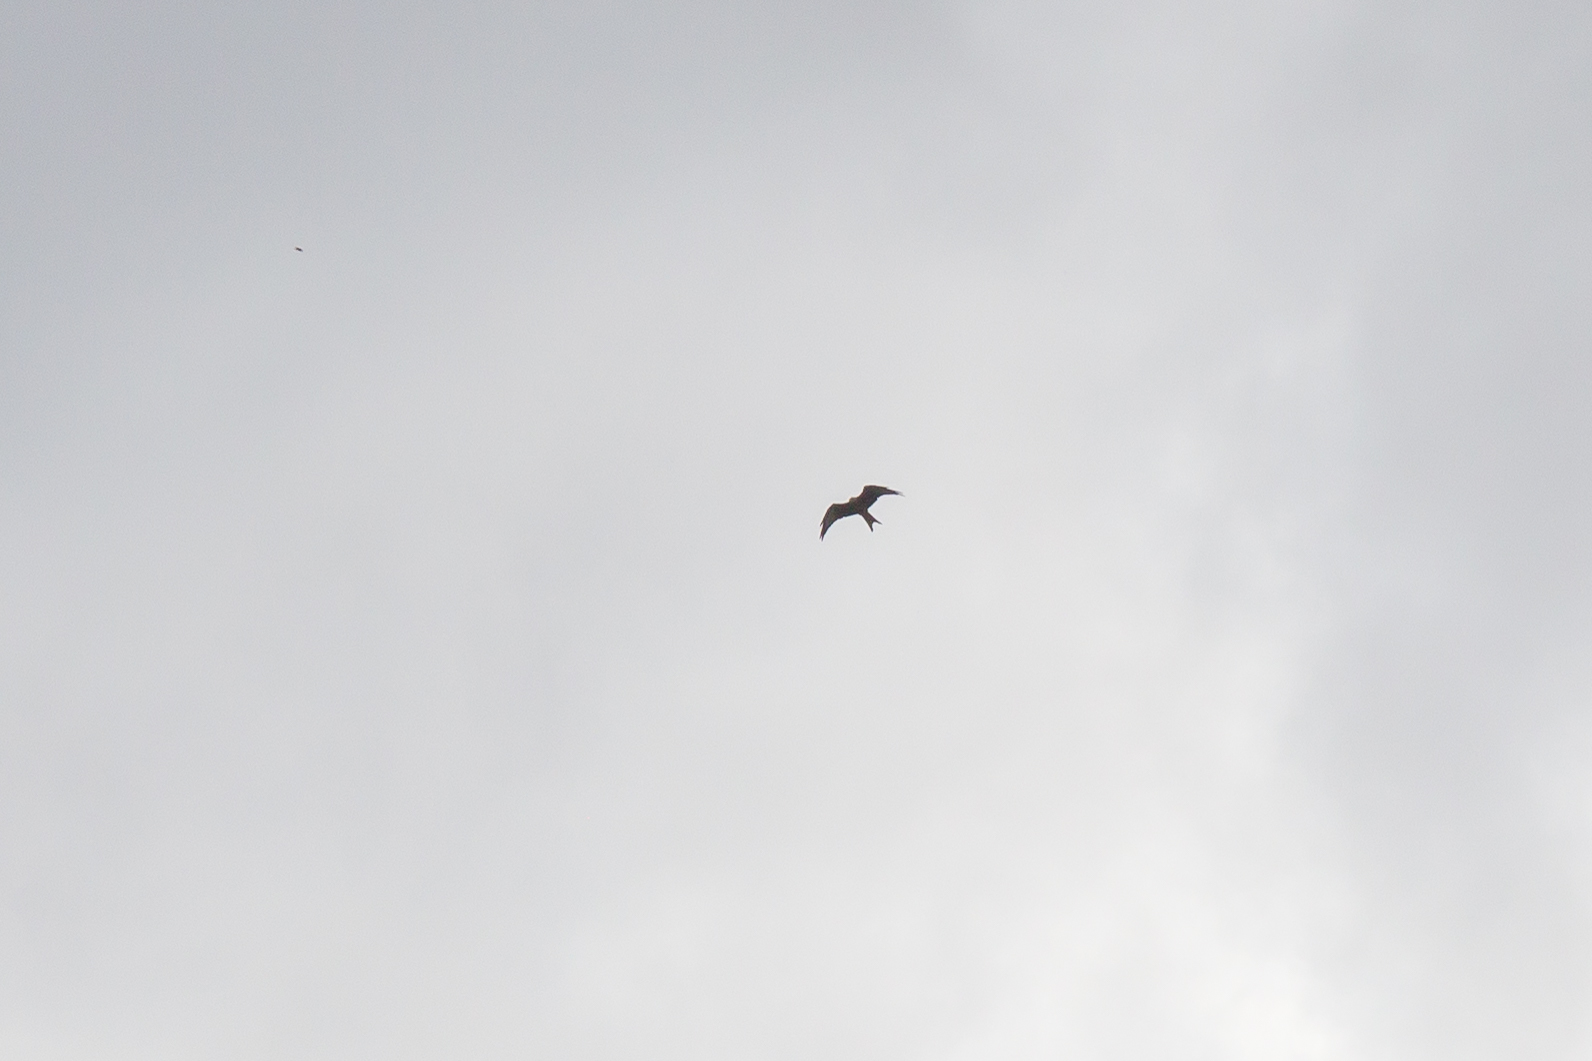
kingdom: Animalia
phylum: Chordata
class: Aves
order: Accipitriformes
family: Accipitridae
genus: Milvus
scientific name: Milvus milvus
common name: Red kite
